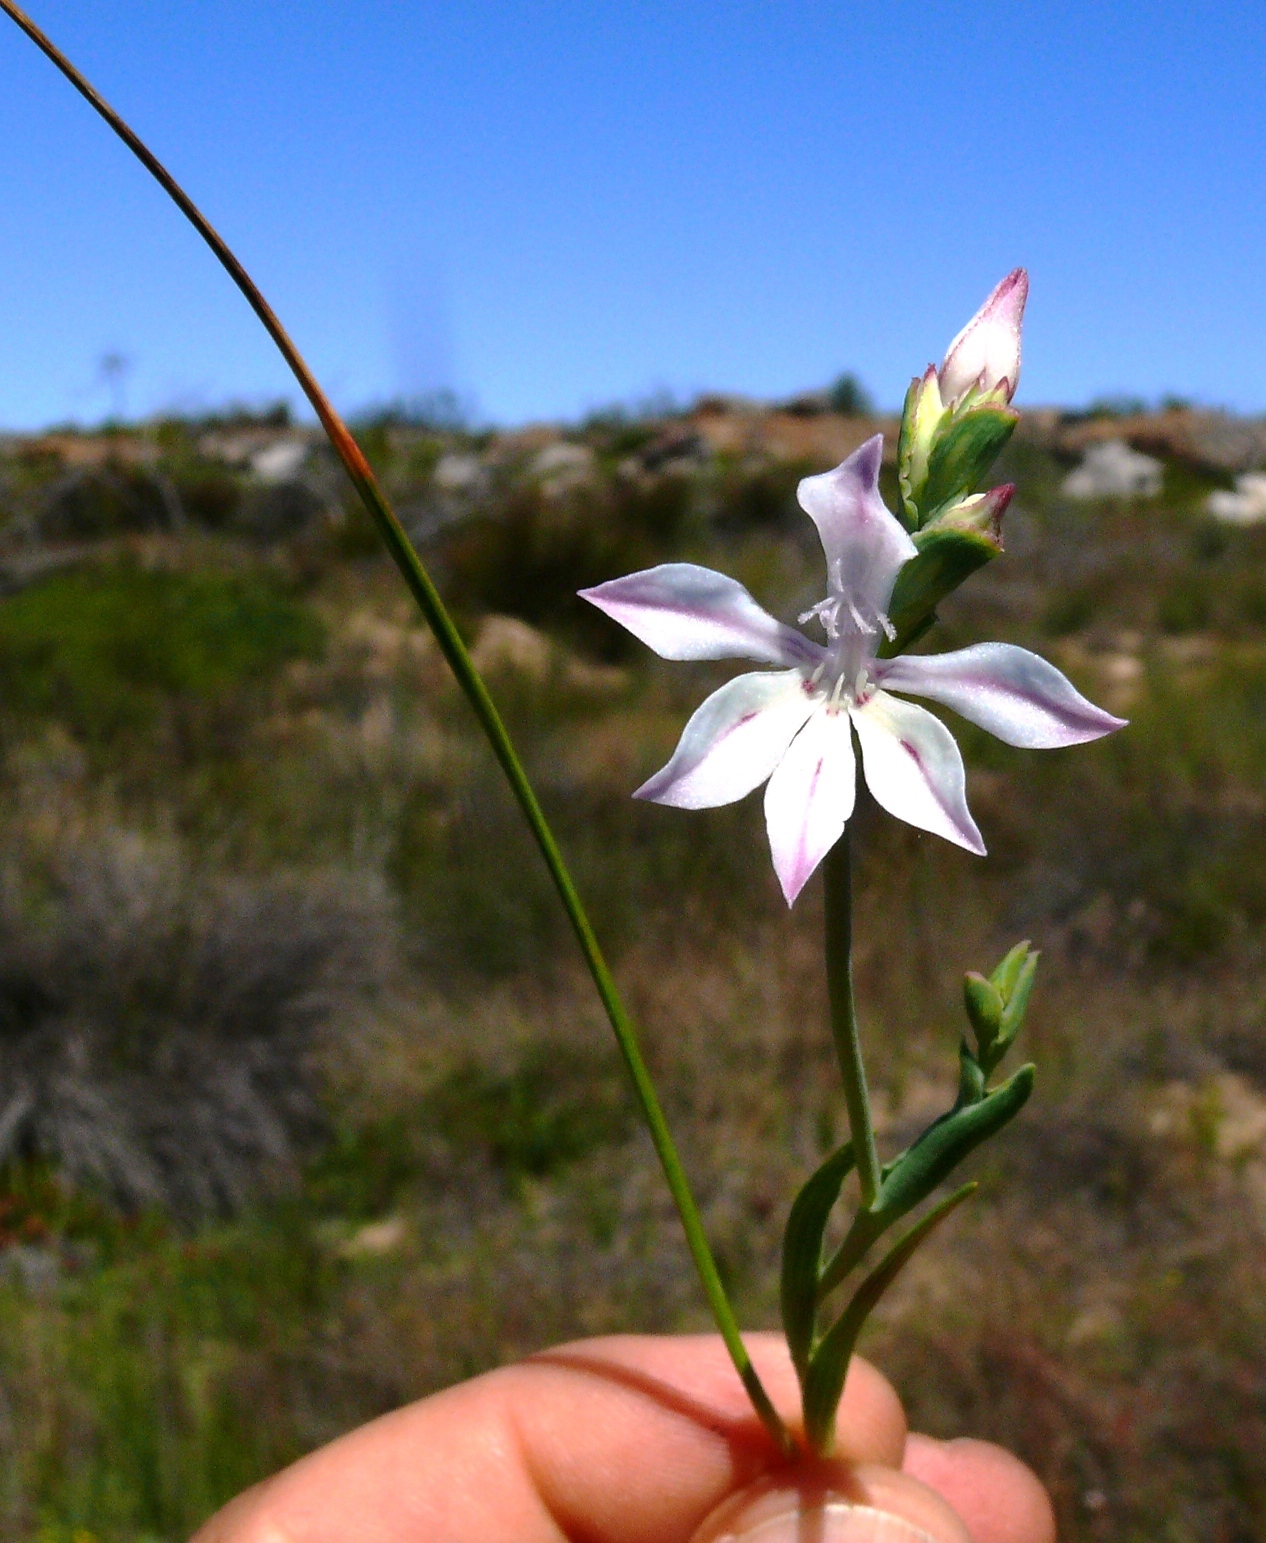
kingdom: Plantae
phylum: Tracheophyta
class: Liliopsida
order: Asparagales
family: Iridaceae
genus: Lapeirousia
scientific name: Lapeirousia divaricata
